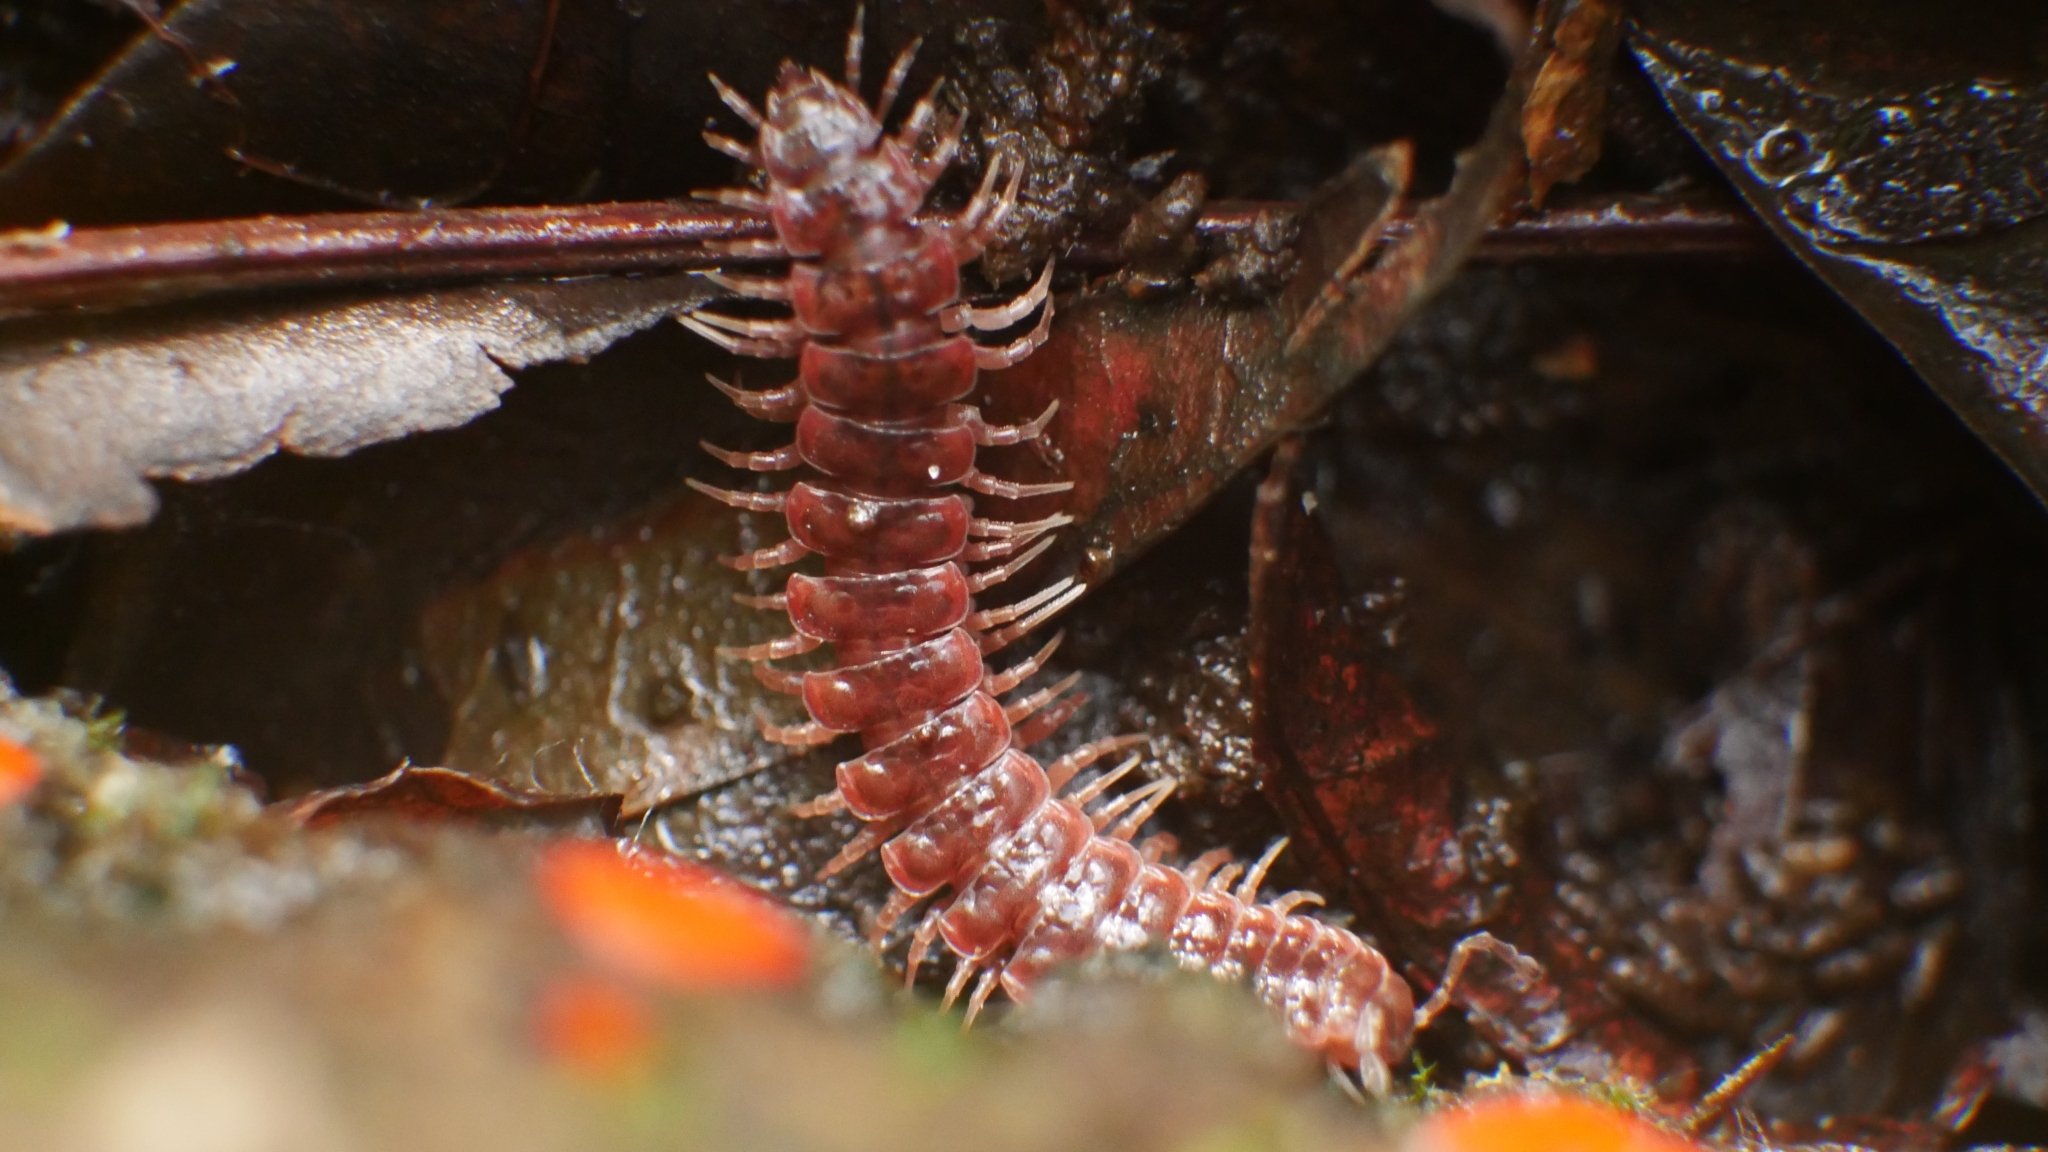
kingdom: Animalia
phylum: Arthropoda
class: Diplopoda
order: Polydesmida
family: Polydesmidae
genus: Pseudopolydesmus
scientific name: Pseudopolydesmus serratus
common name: Common pink flat-back millipede
